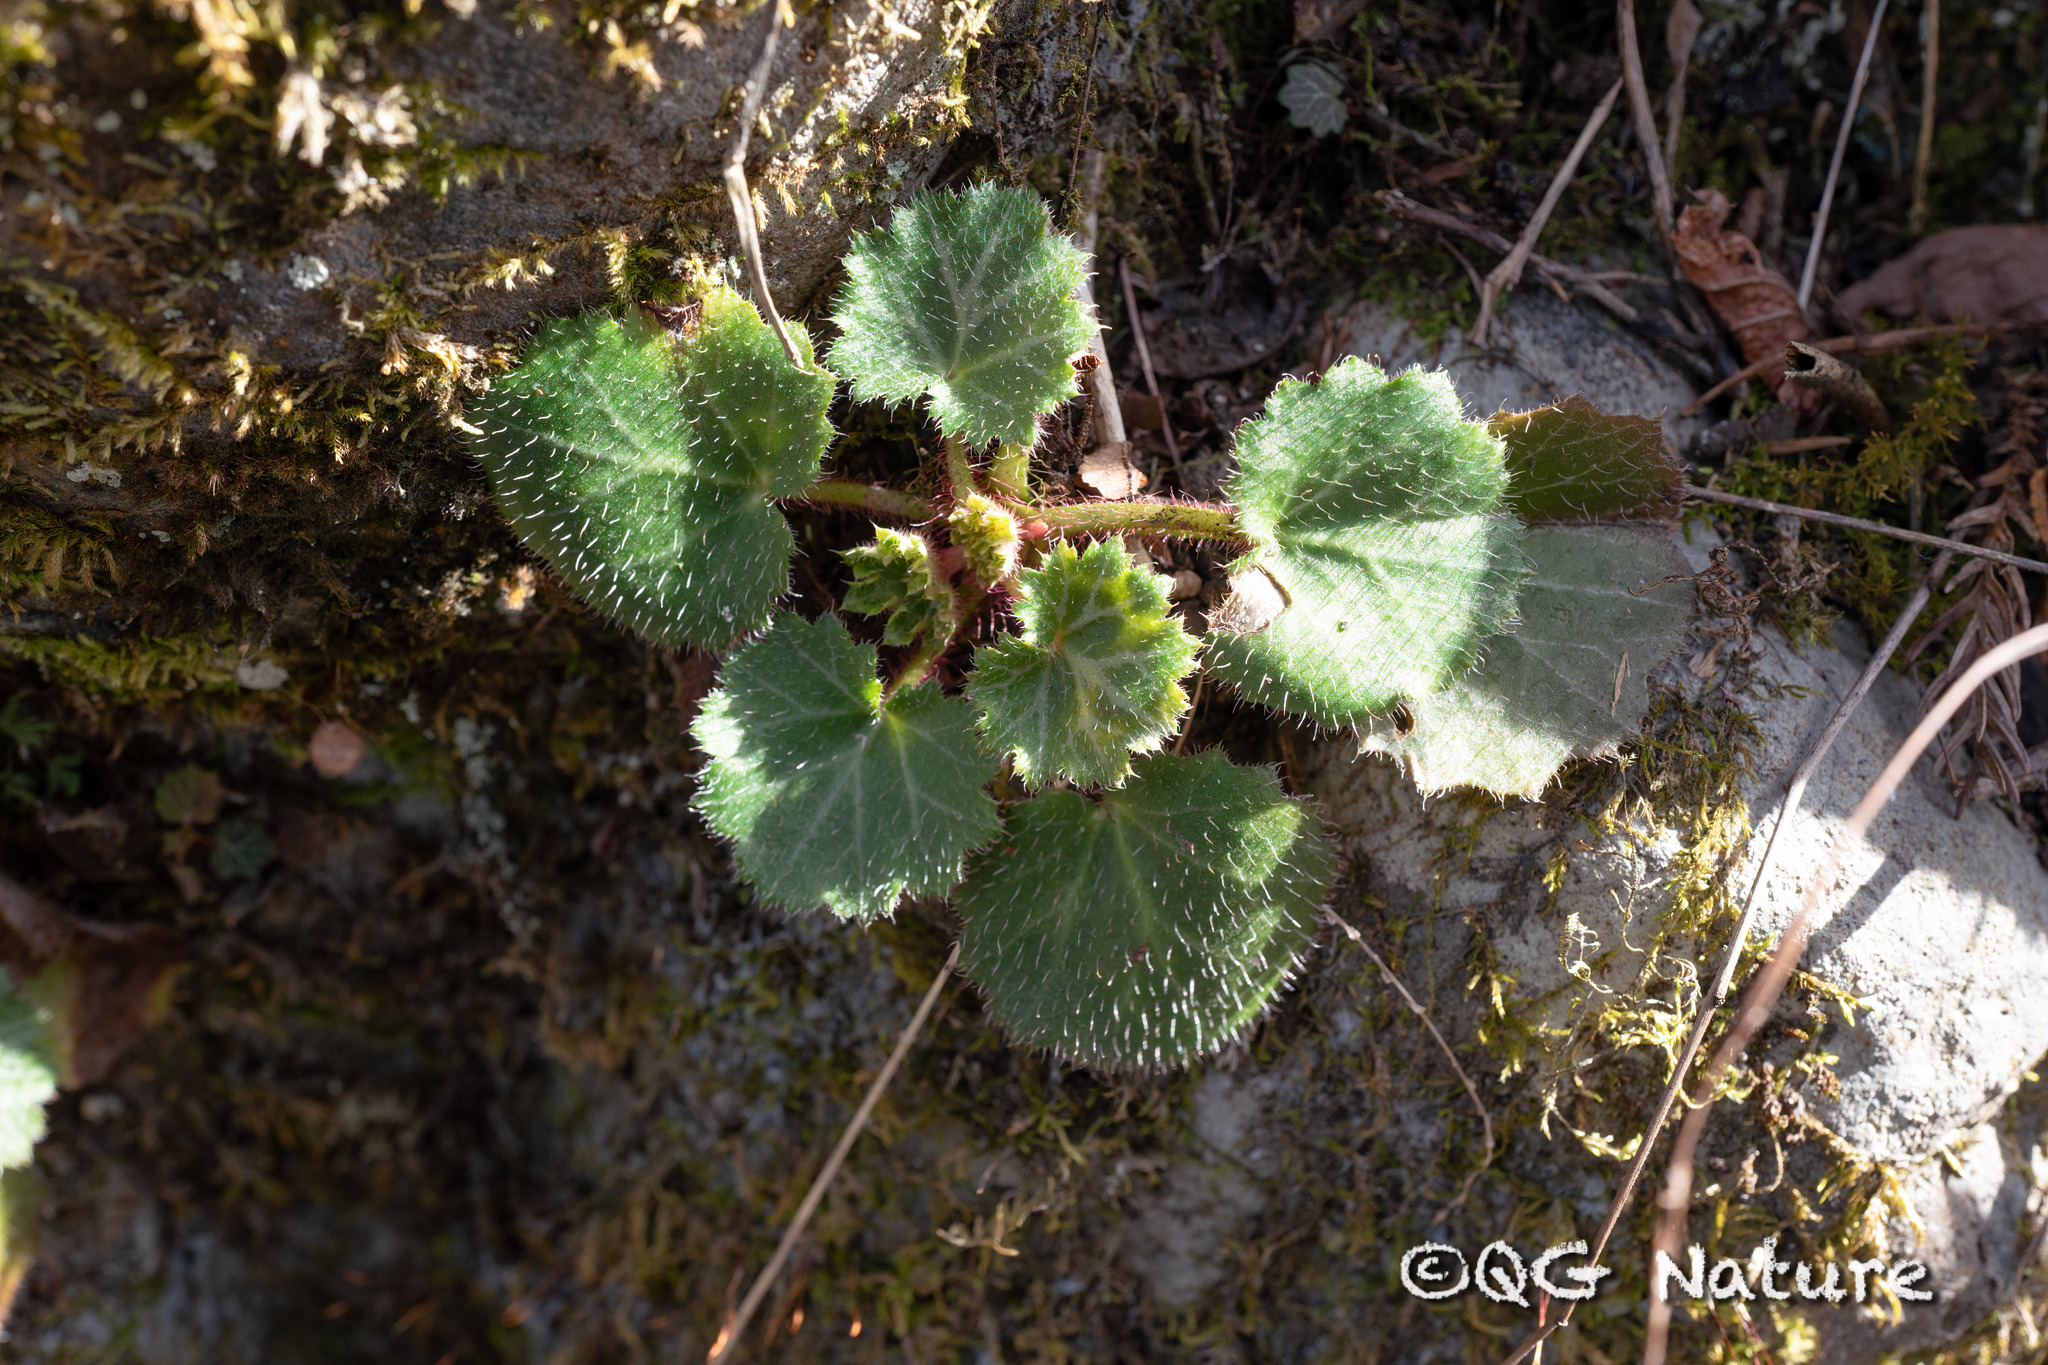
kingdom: Plantae
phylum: Tracheophyta
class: Magnoliopsida
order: Saxifragales
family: Saxifragaceae
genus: Saxifraga
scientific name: Saxifraga stolonifera
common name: Creeping saxifrage
